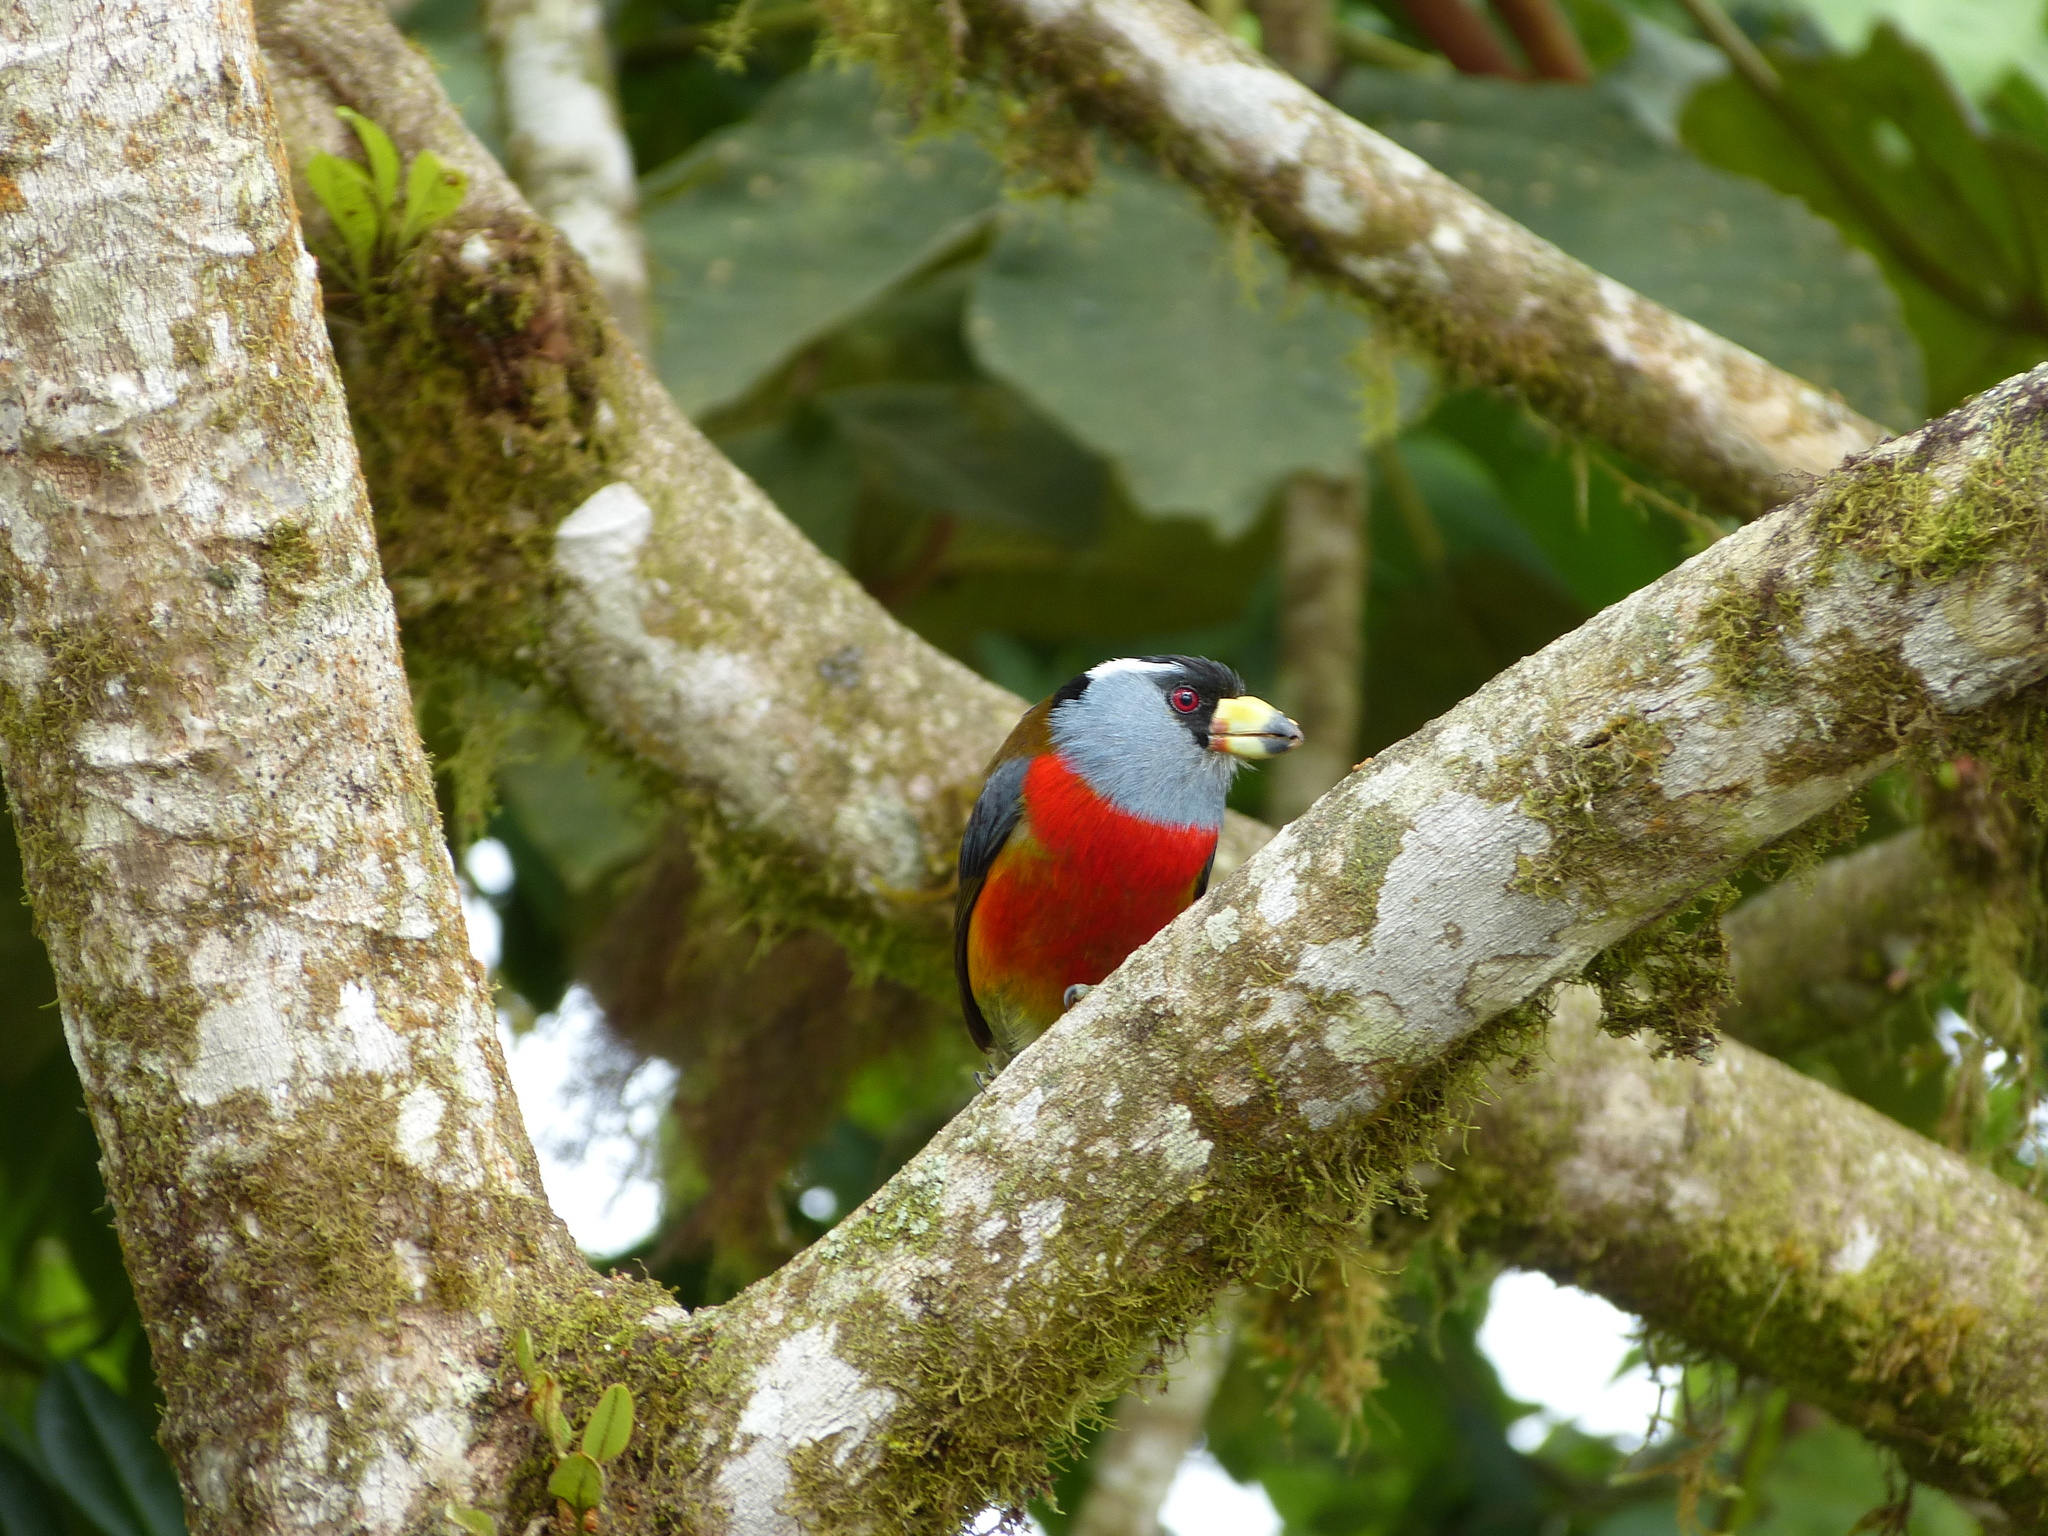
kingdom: Animalia
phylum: Chordata
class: Aves
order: Piciformes
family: Semnornithidae
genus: Semnornis
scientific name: Semnornis ramphastinus
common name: Toucan barbet
